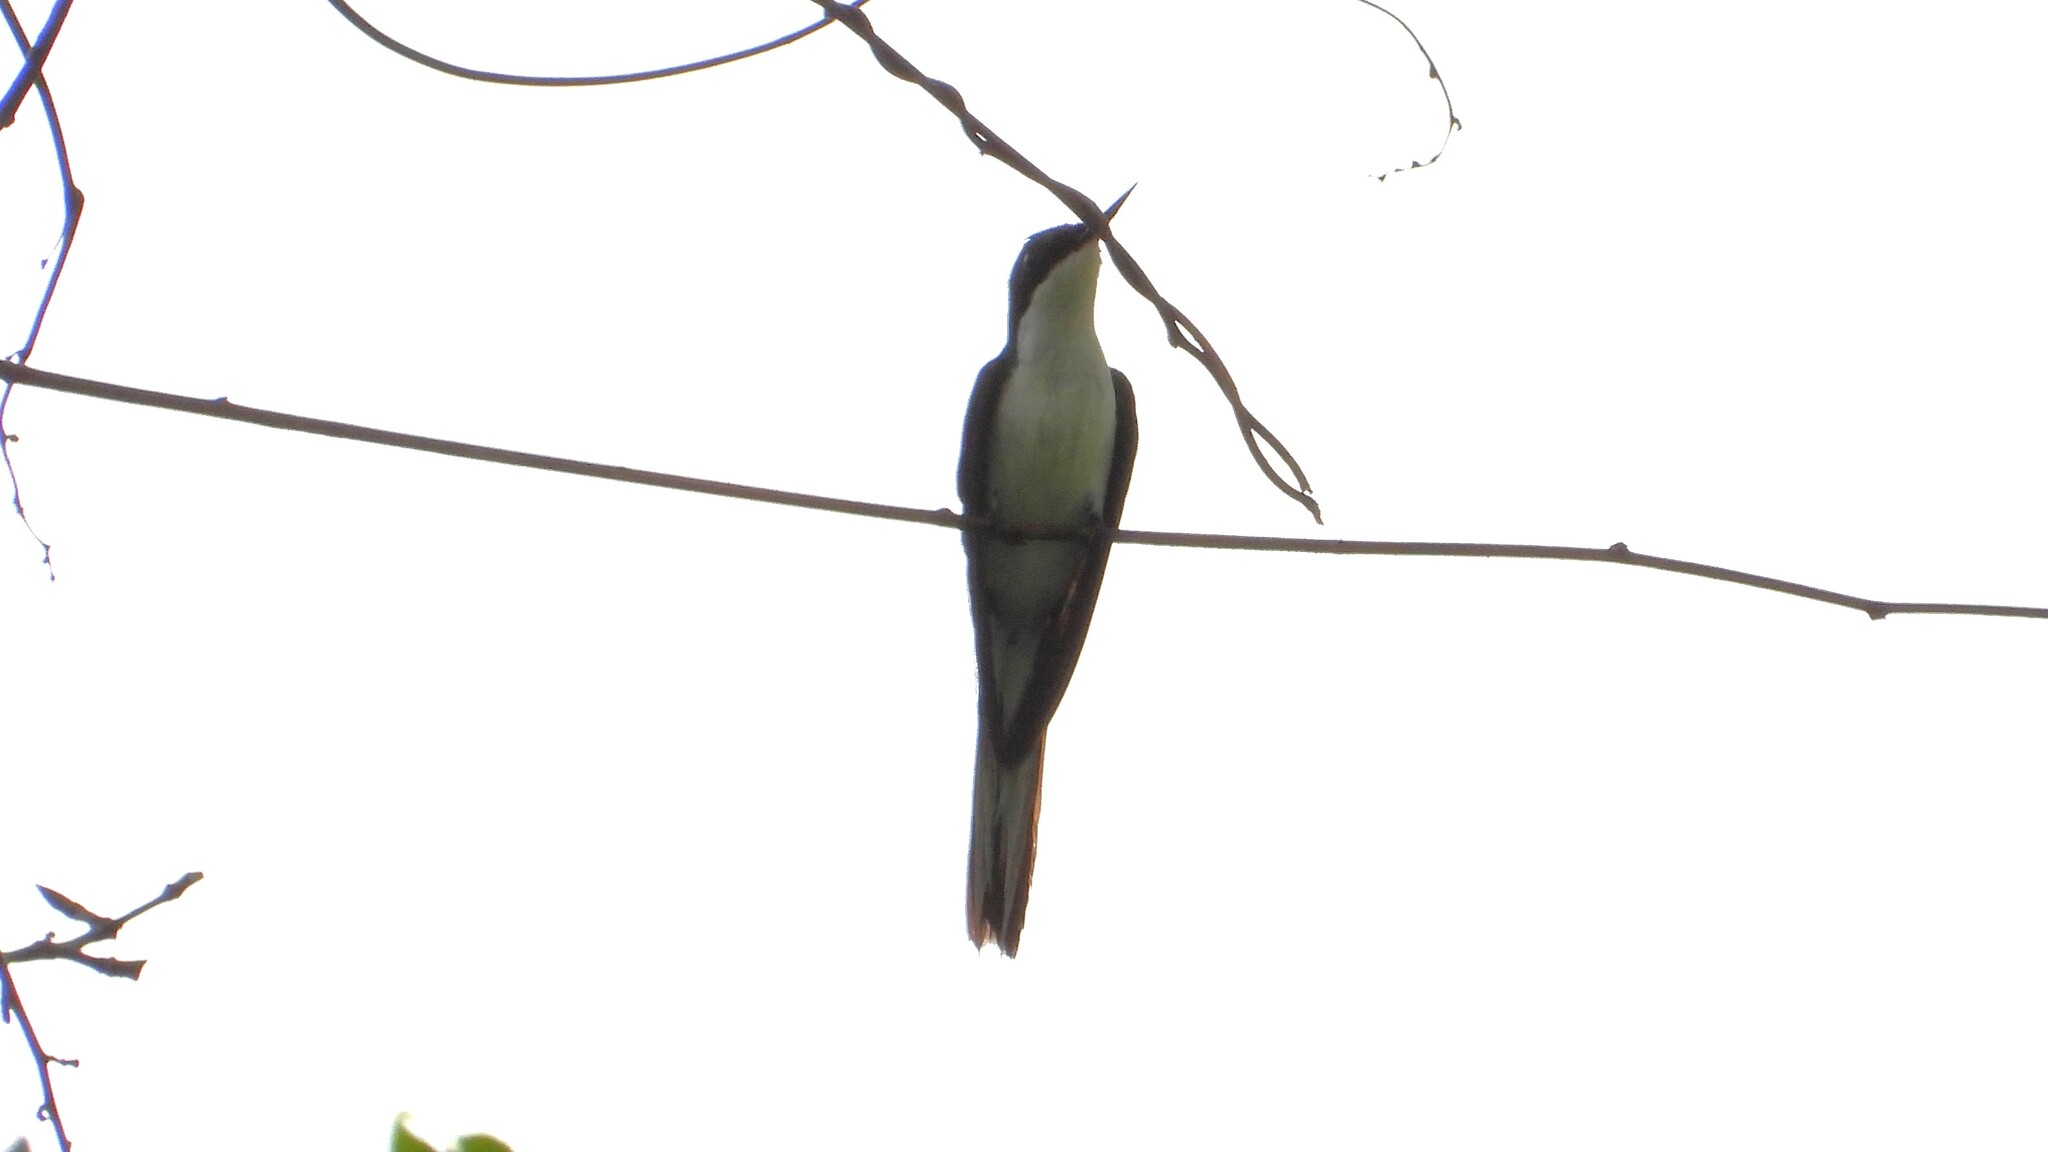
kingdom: Animalia
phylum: Chordata
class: Aves
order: Apodiformes
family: Trochilidae
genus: Heliothryx
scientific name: Heliothryx barroti
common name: Purple-crowned fairy
